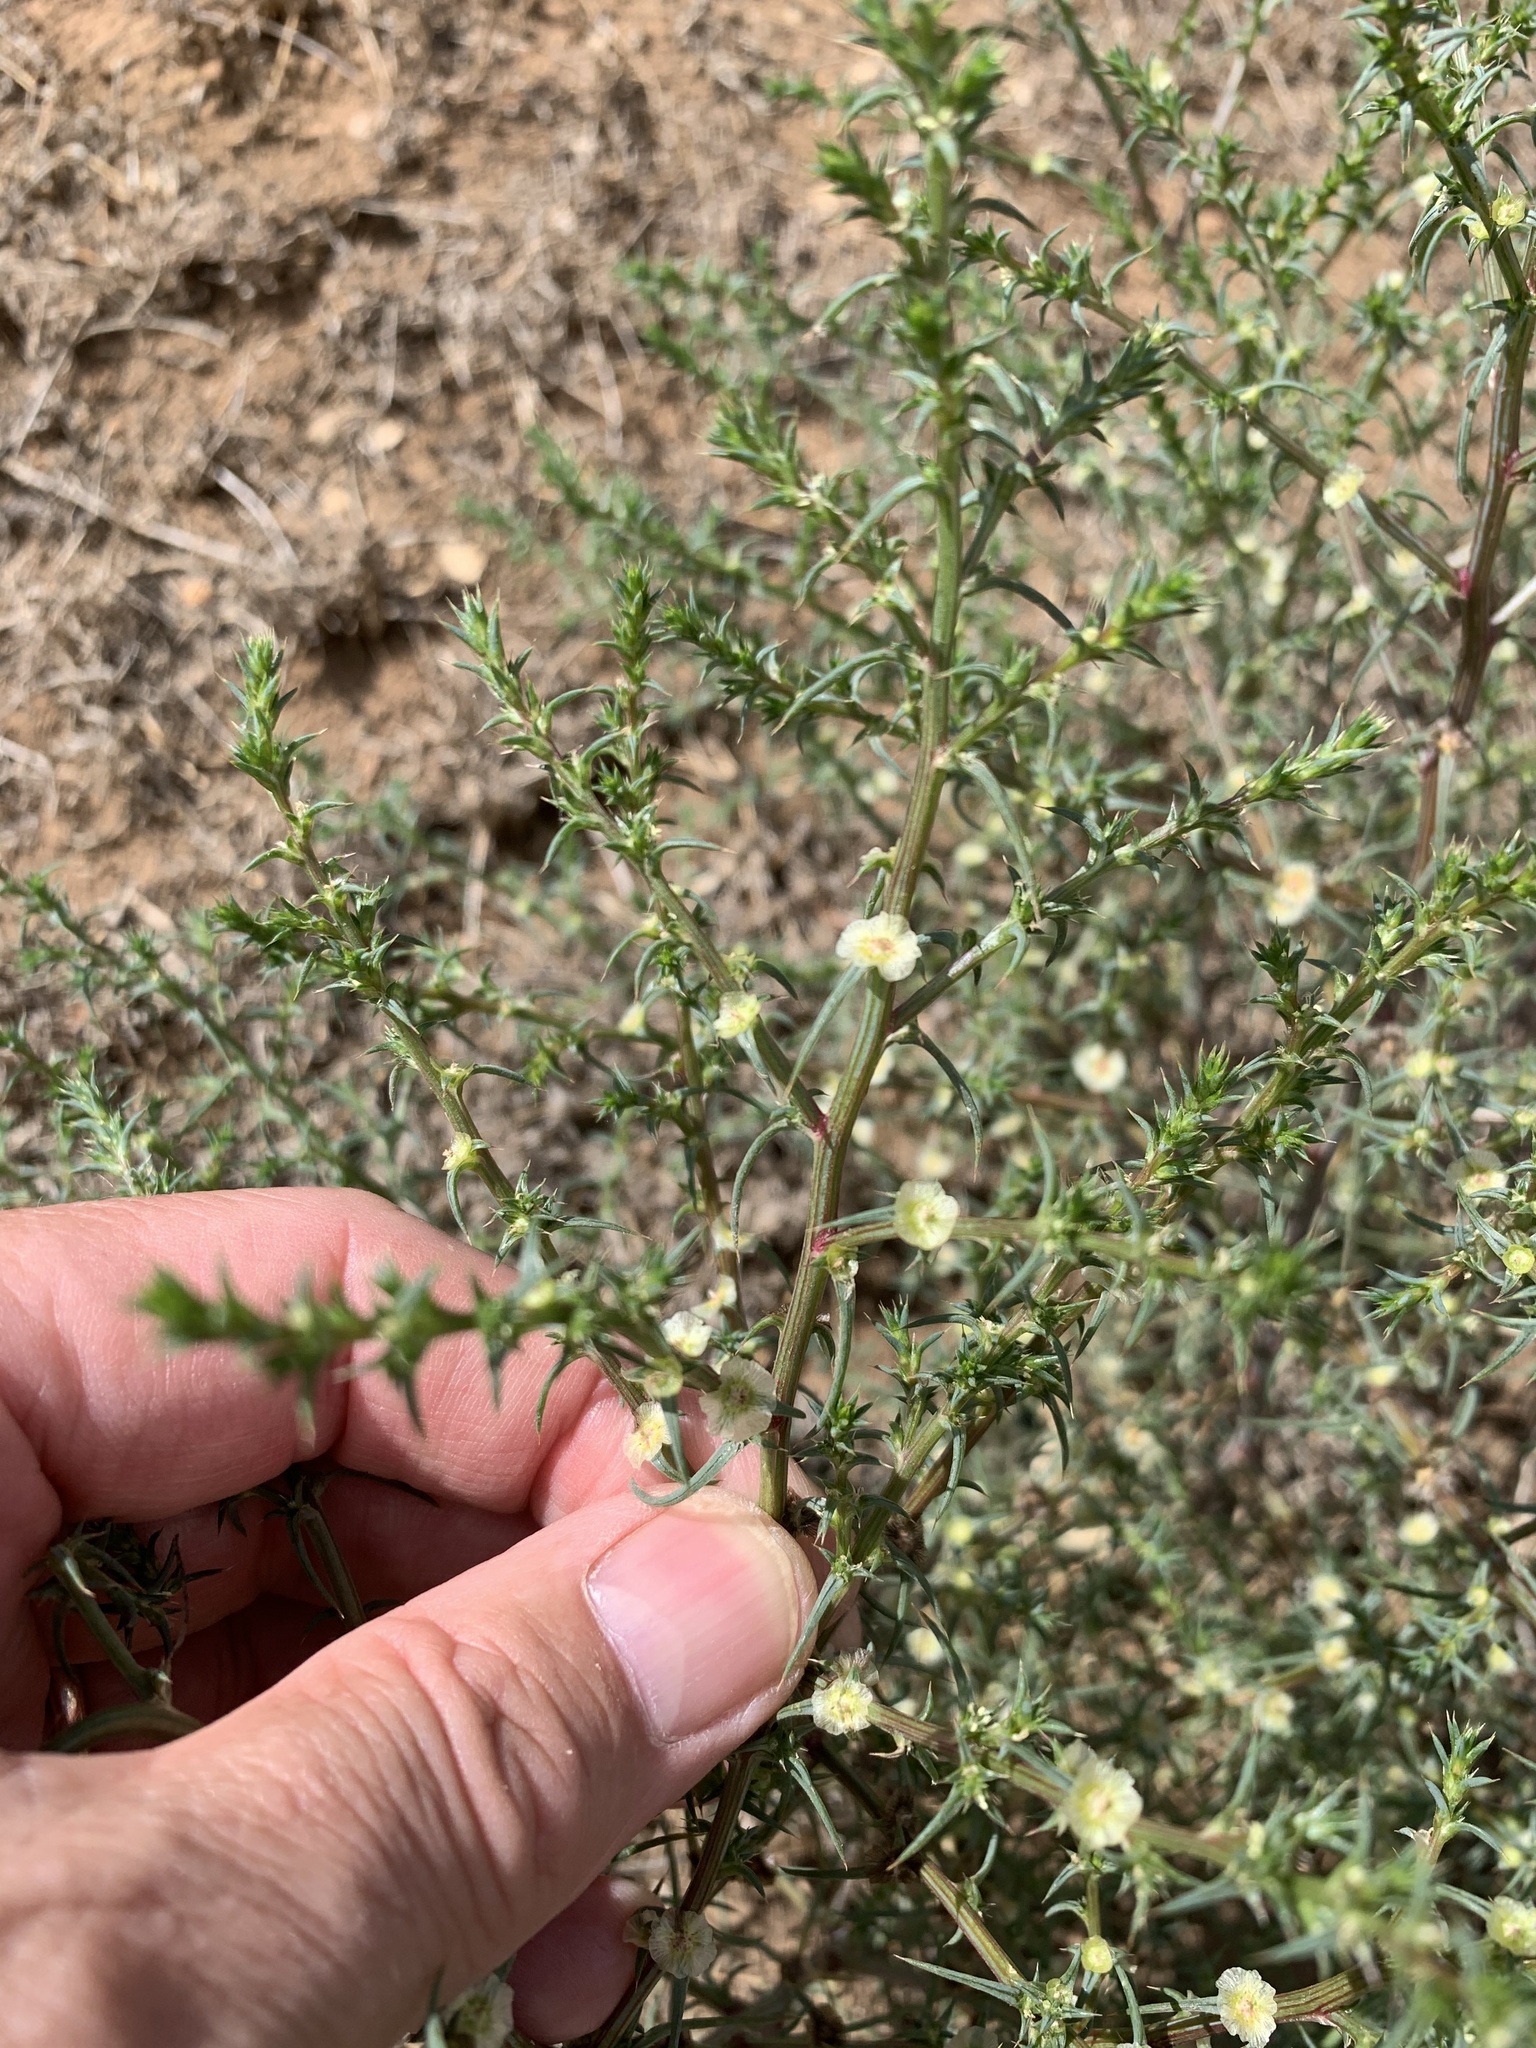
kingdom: Plantae
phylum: Tracheophyta
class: Magnoliopsida
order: Caryophyllales
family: Amaranthaceae
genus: Salsola
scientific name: Salsola kali
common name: Saltwort
